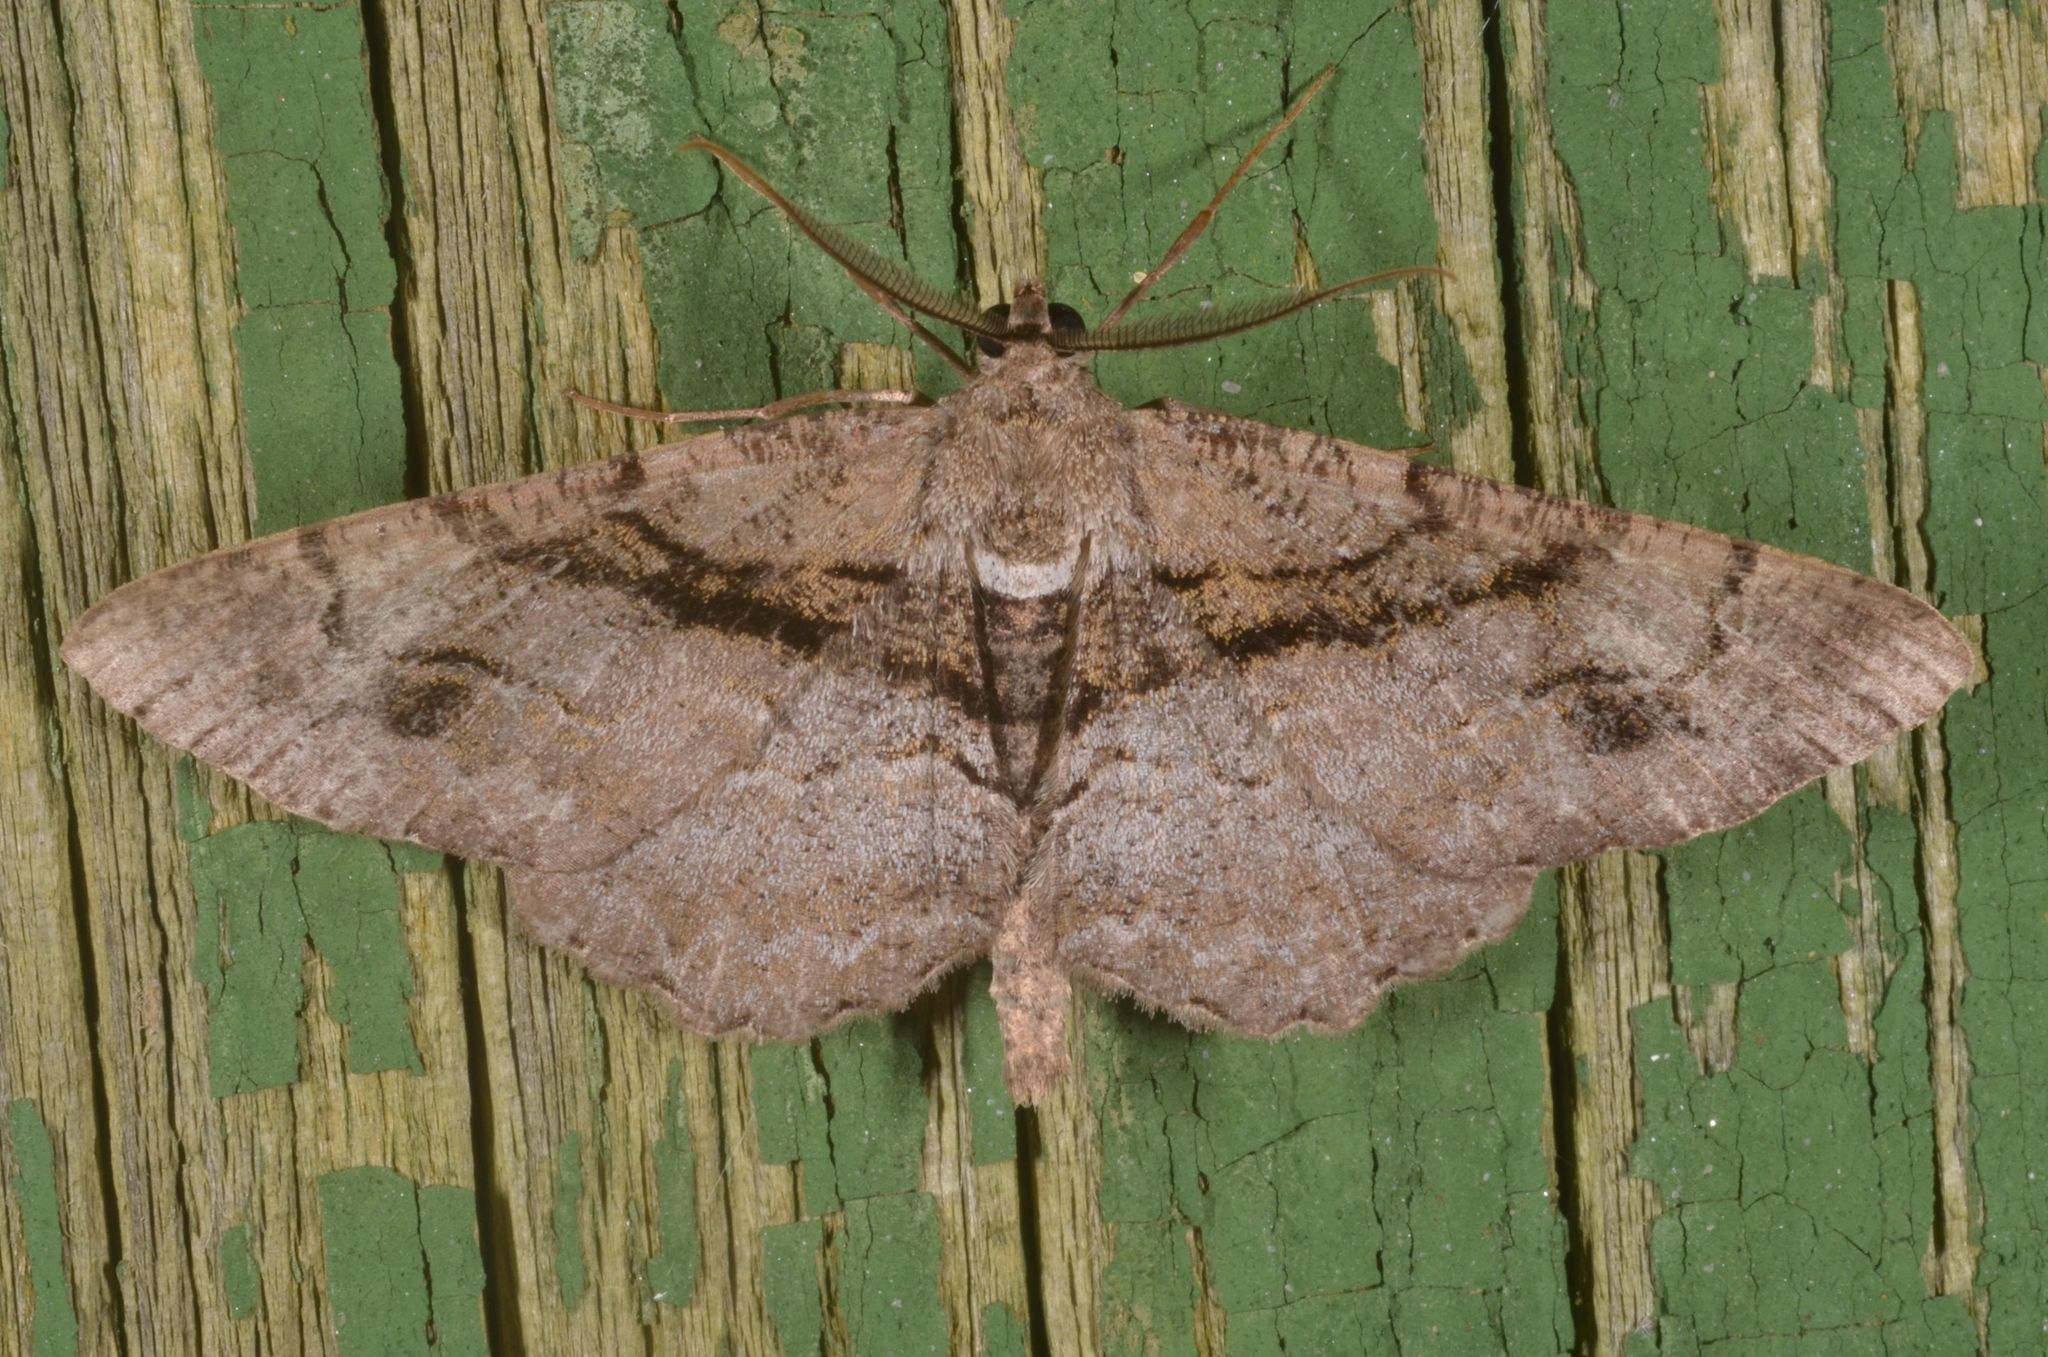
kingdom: Animalia
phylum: Arthropoda
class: Insecta
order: Lepidoptera
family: Geometridae
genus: Alcis
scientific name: Alcis deversata
